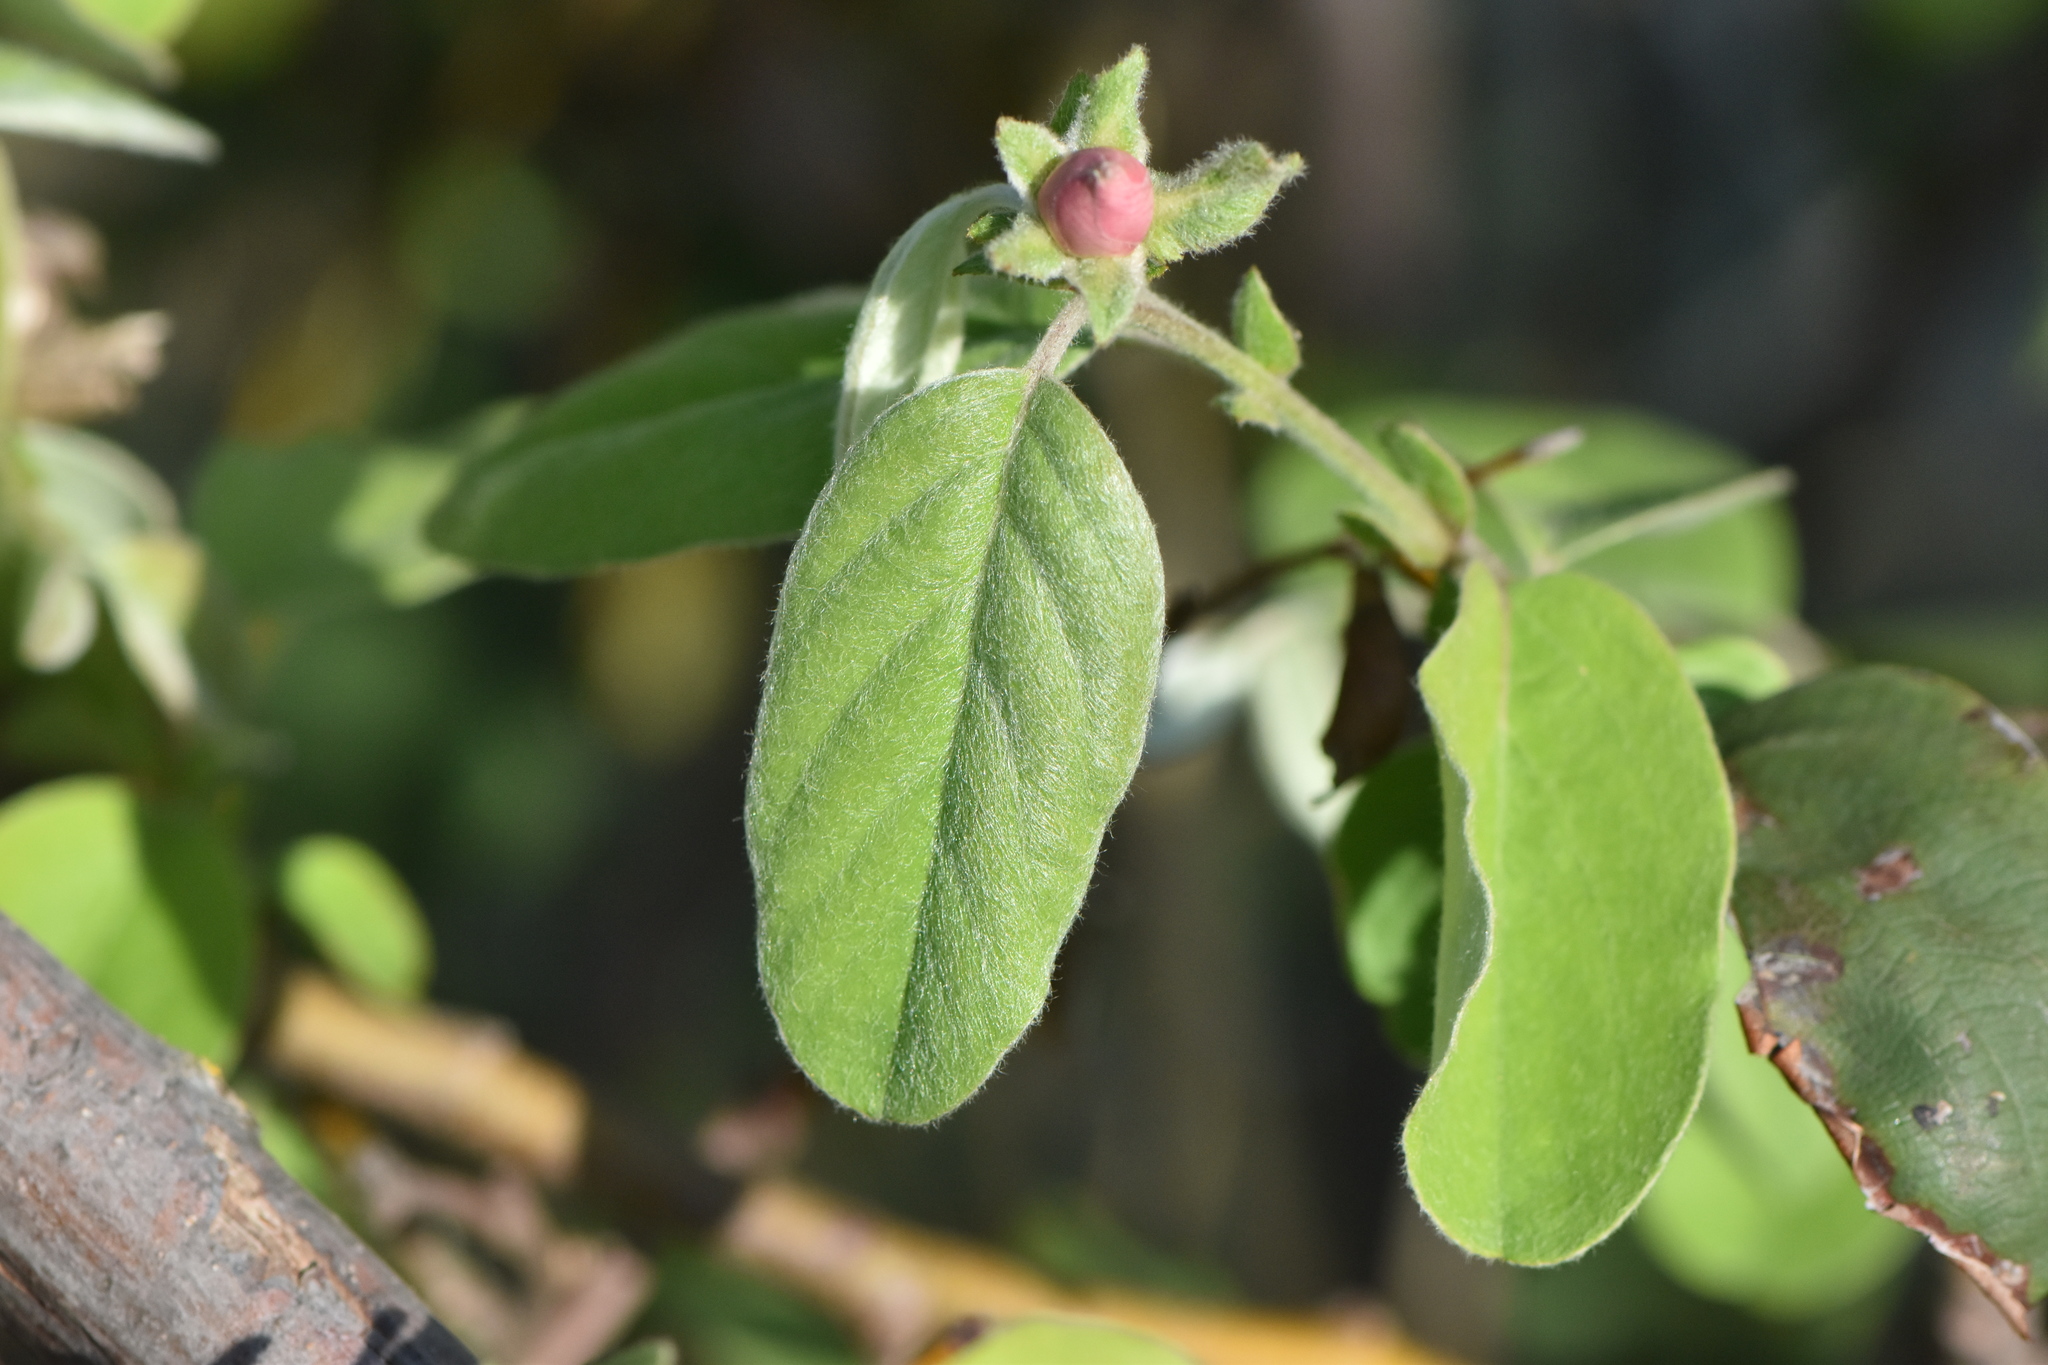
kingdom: Plantae
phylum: Tracheophyta
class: Magnoliopsida
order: Rosales
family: Rosaceae
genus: Cydonia
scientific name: Cydonia oblonga
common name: Quince
